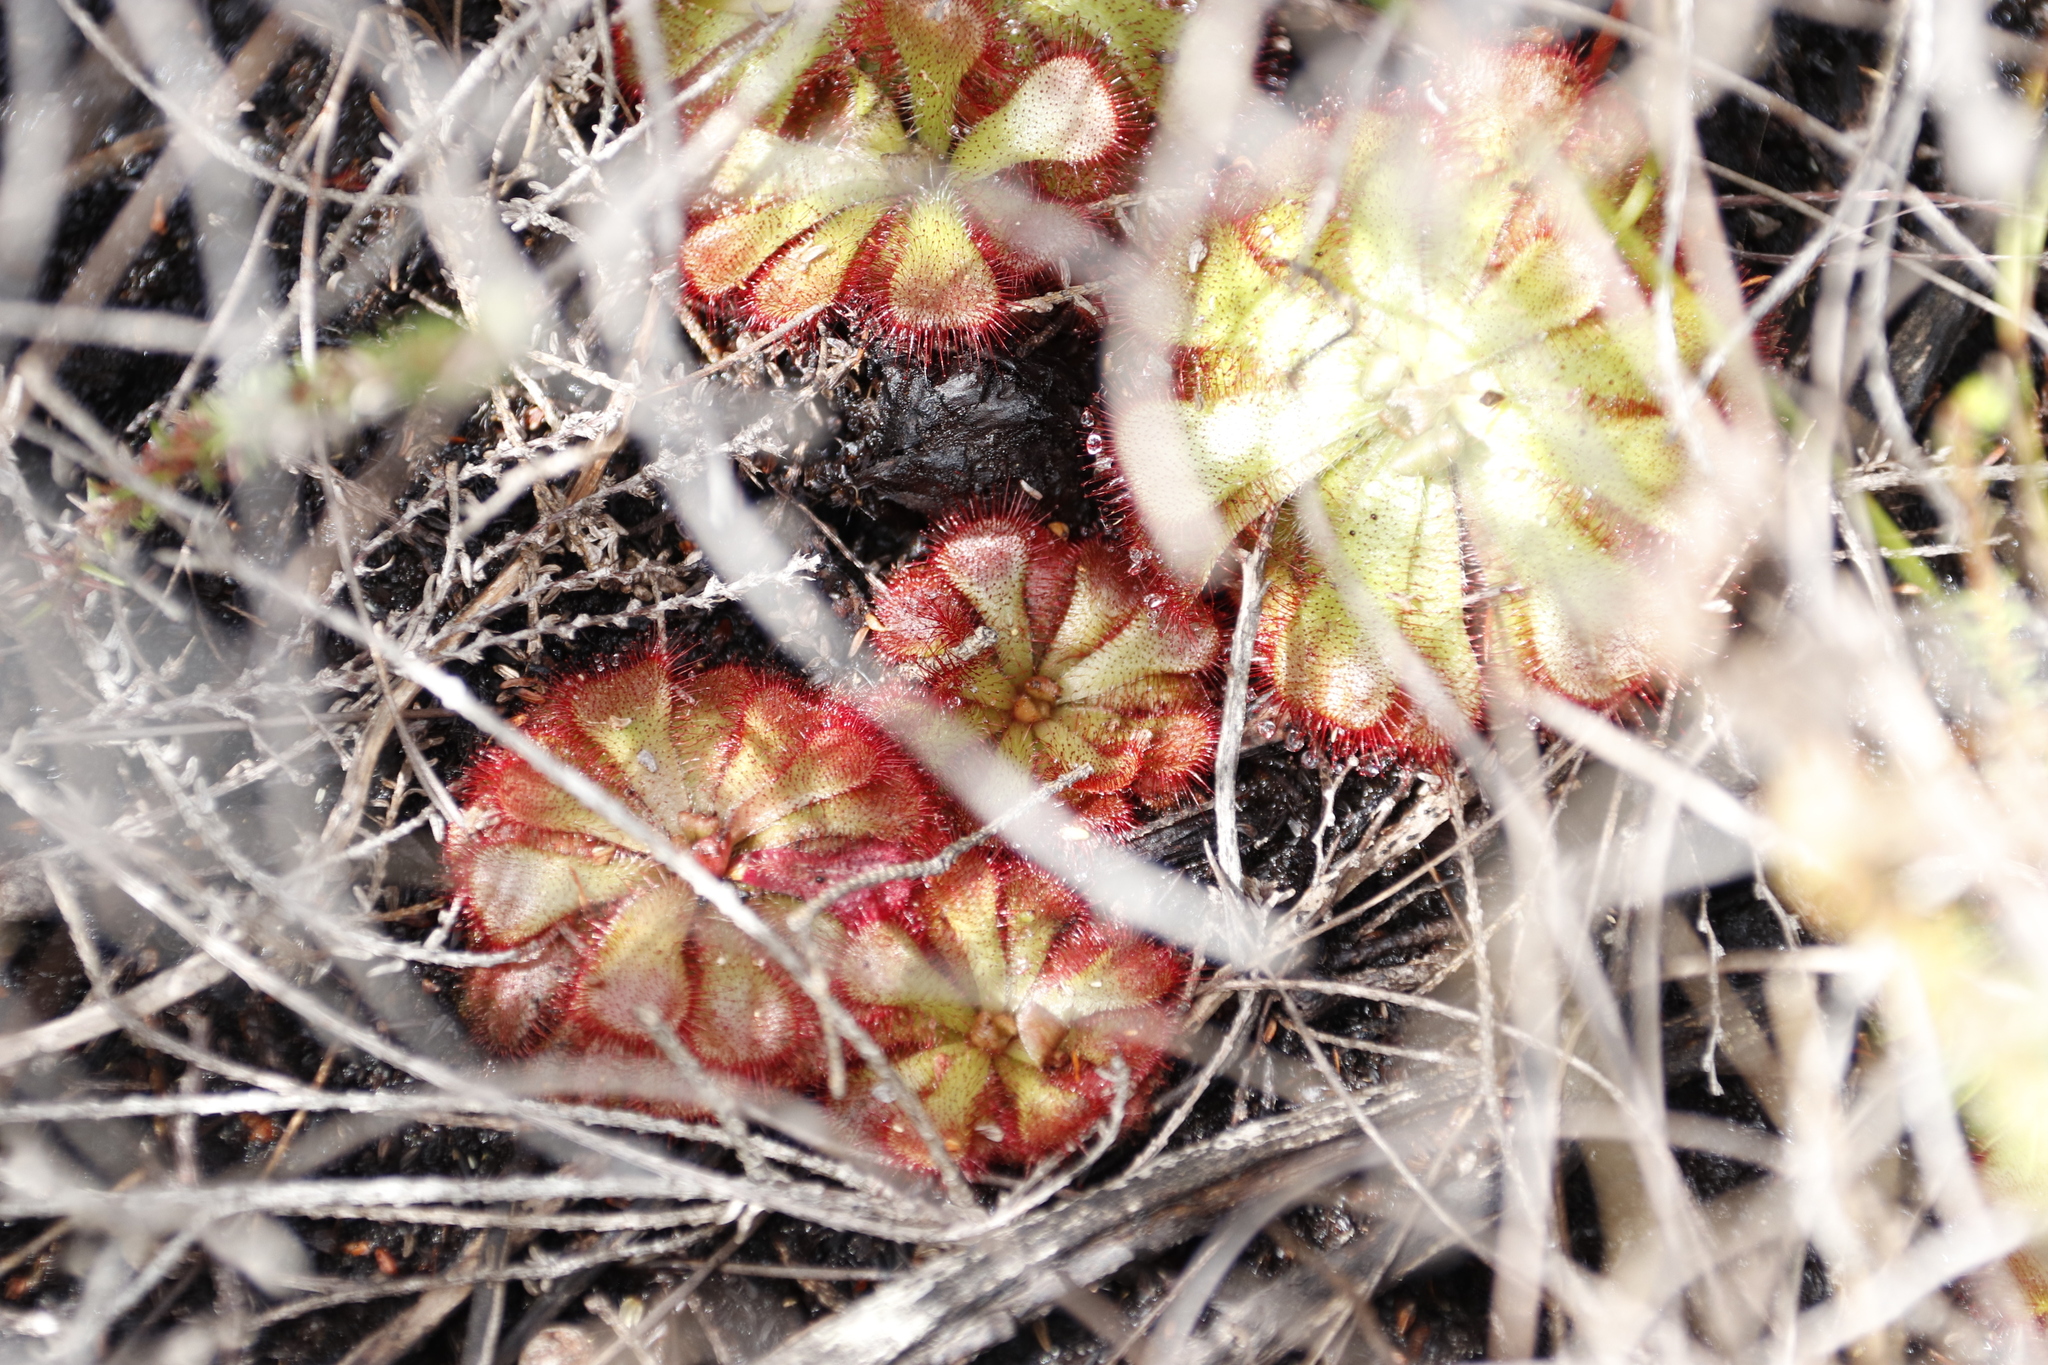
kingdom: Plantae
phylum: Tracheophyta
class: Magnoliopsida
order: Caryophyllales
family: Droseraceae
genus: Drosera
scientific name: Drosera aliciae
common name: Alice sundew
